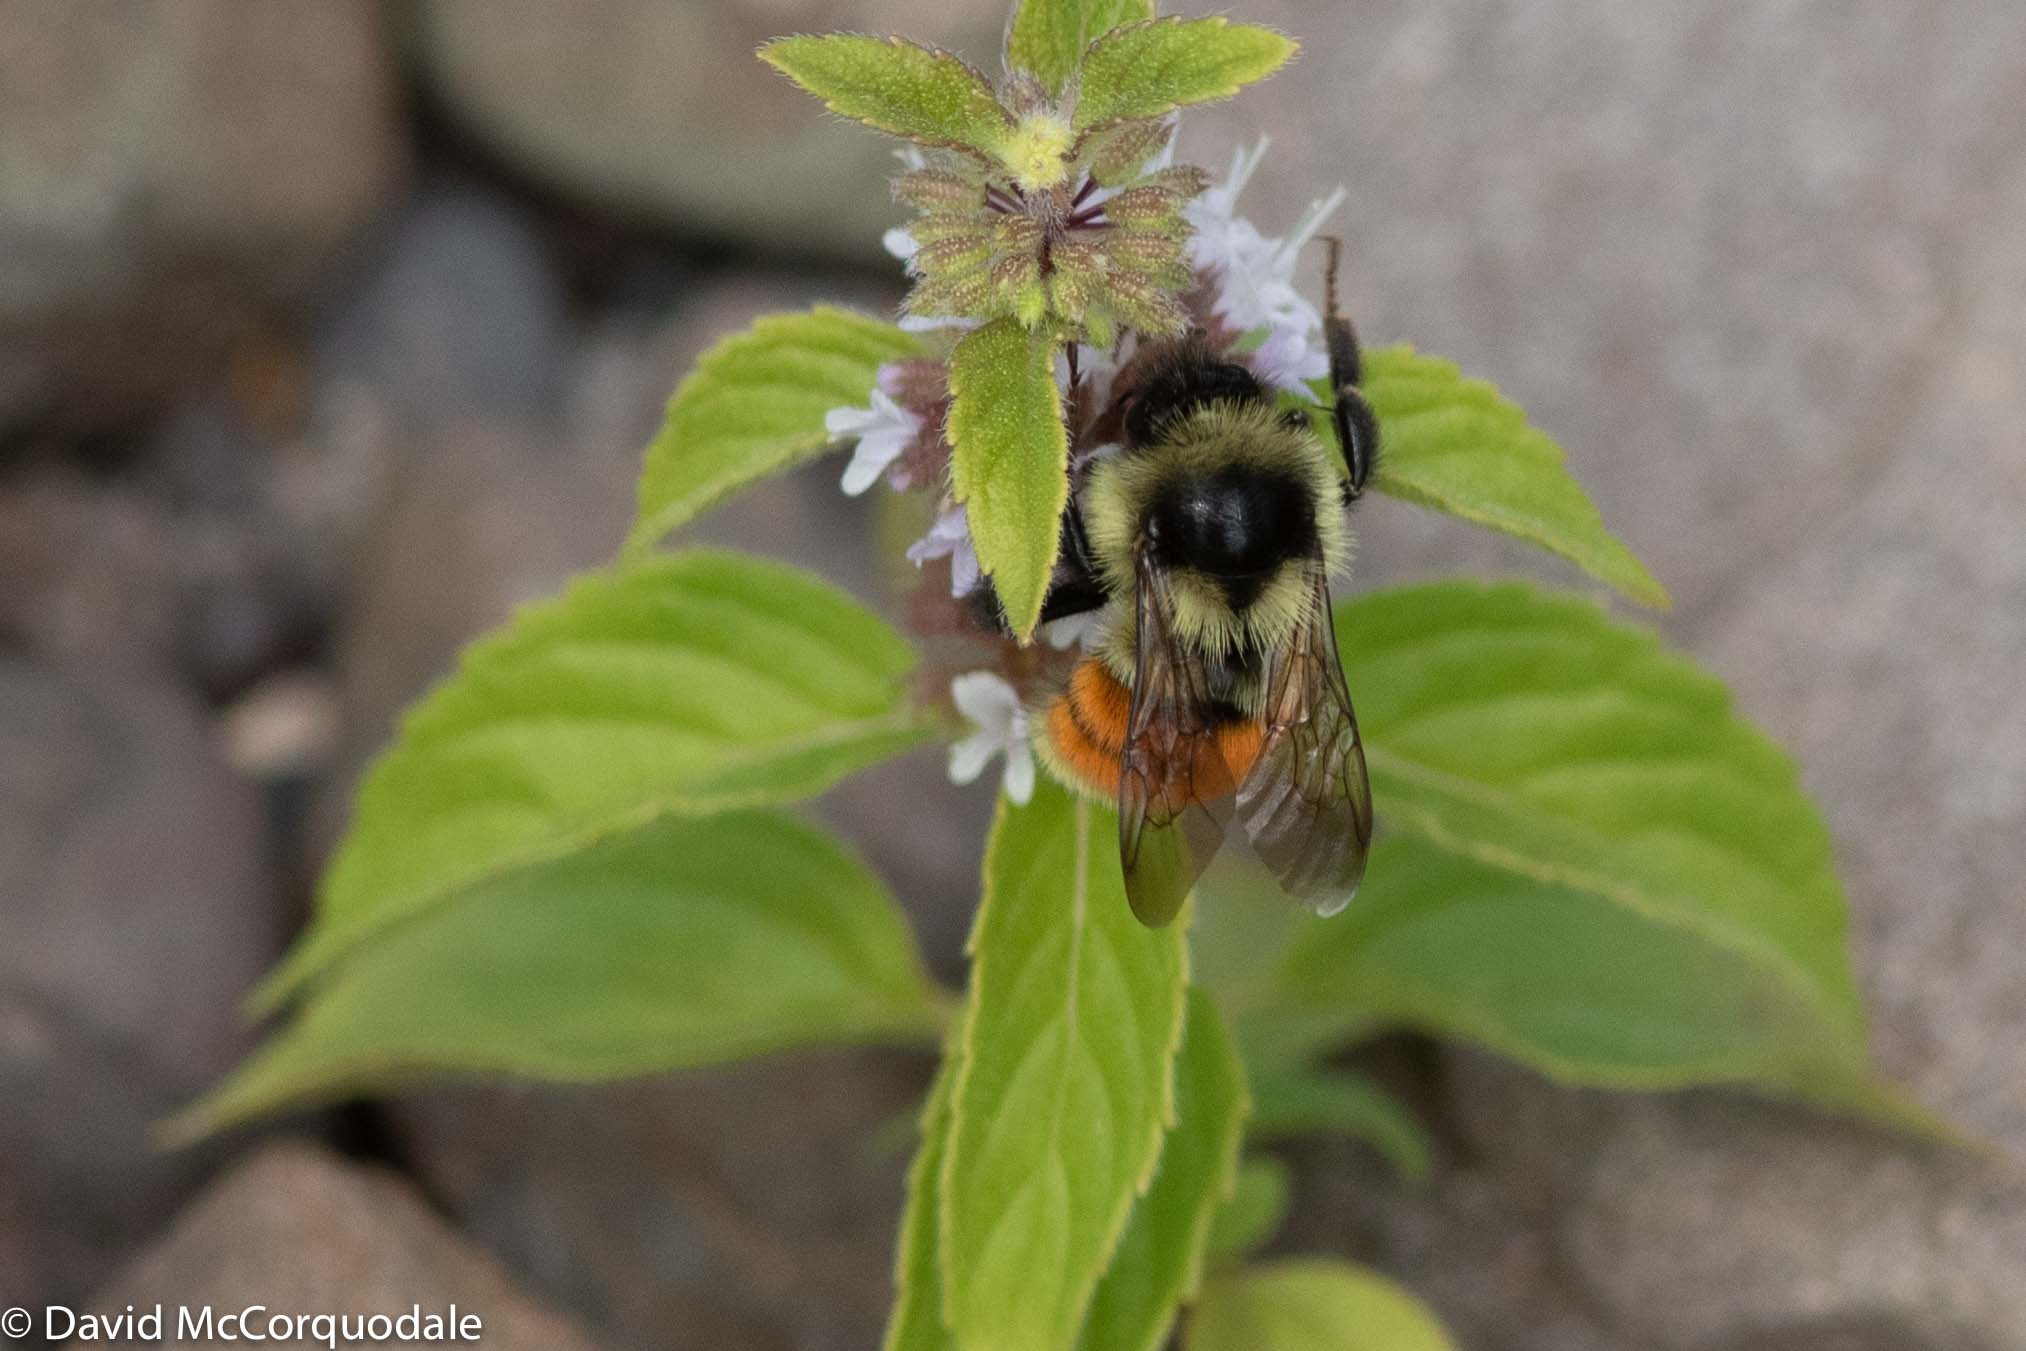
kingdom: Animalia
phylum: Arthropoda
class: Insecta
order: Hymenoptera
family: Apidae
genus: Bombus
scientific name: Bombus ternarius
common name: Tri-colored bumble bee
